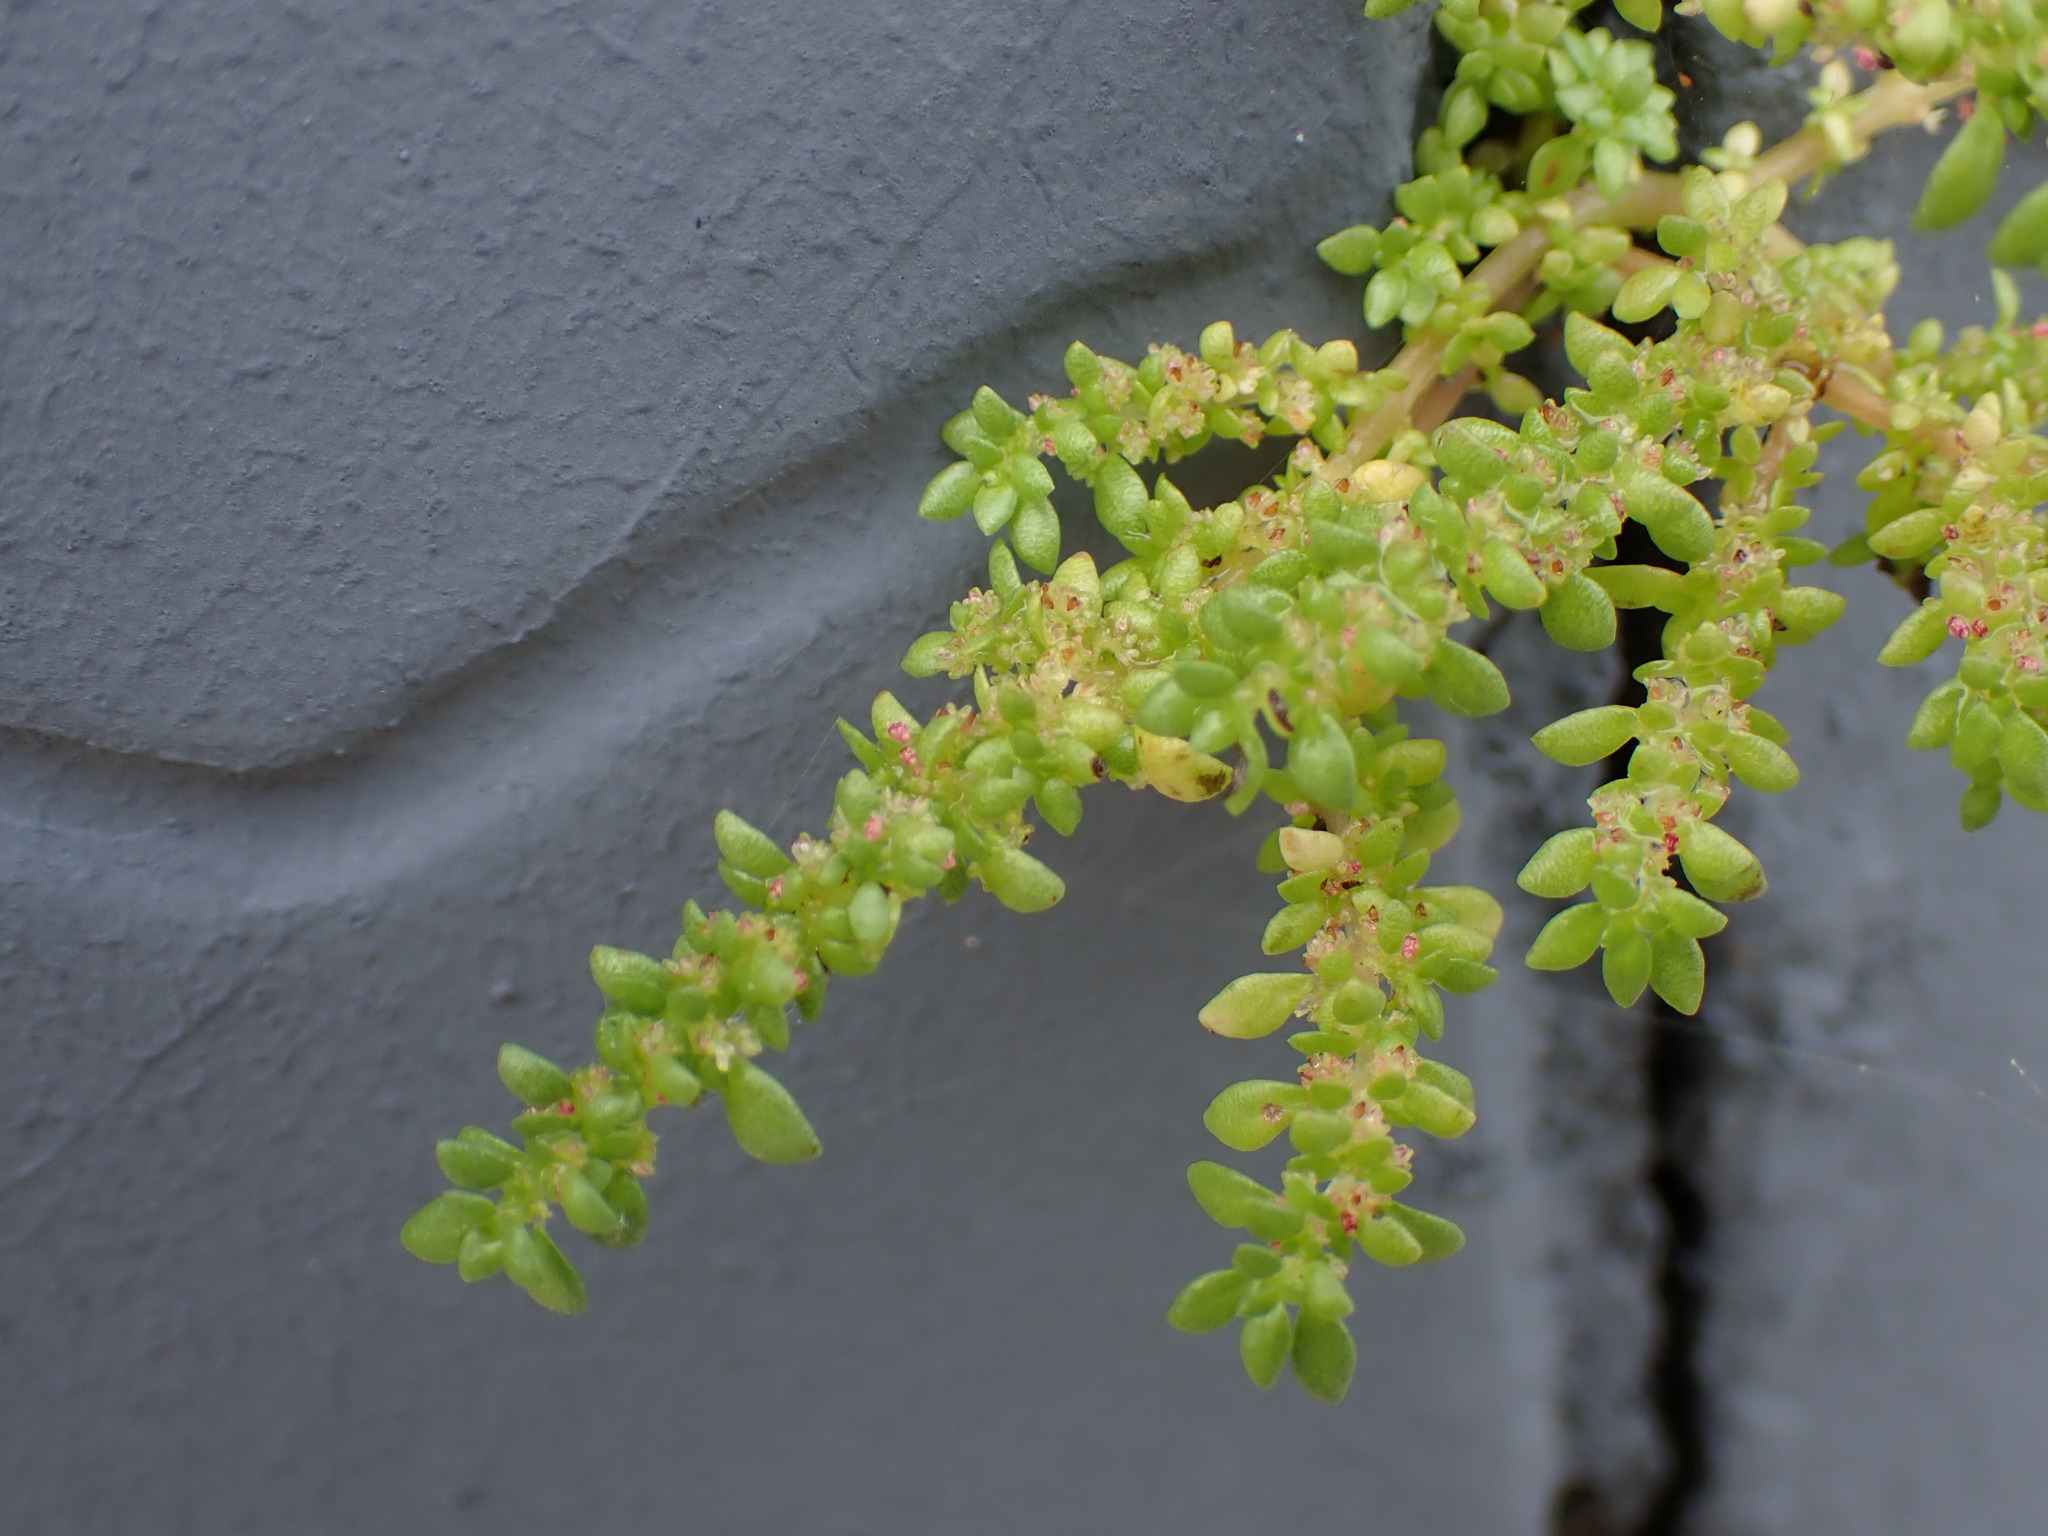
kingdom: Plantae
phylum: Tracheophyta
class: Magnoliopsida
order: Rosales
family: Urticaceae
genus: Pilea
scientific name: Pilea microphylla
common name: Artillery-plant
